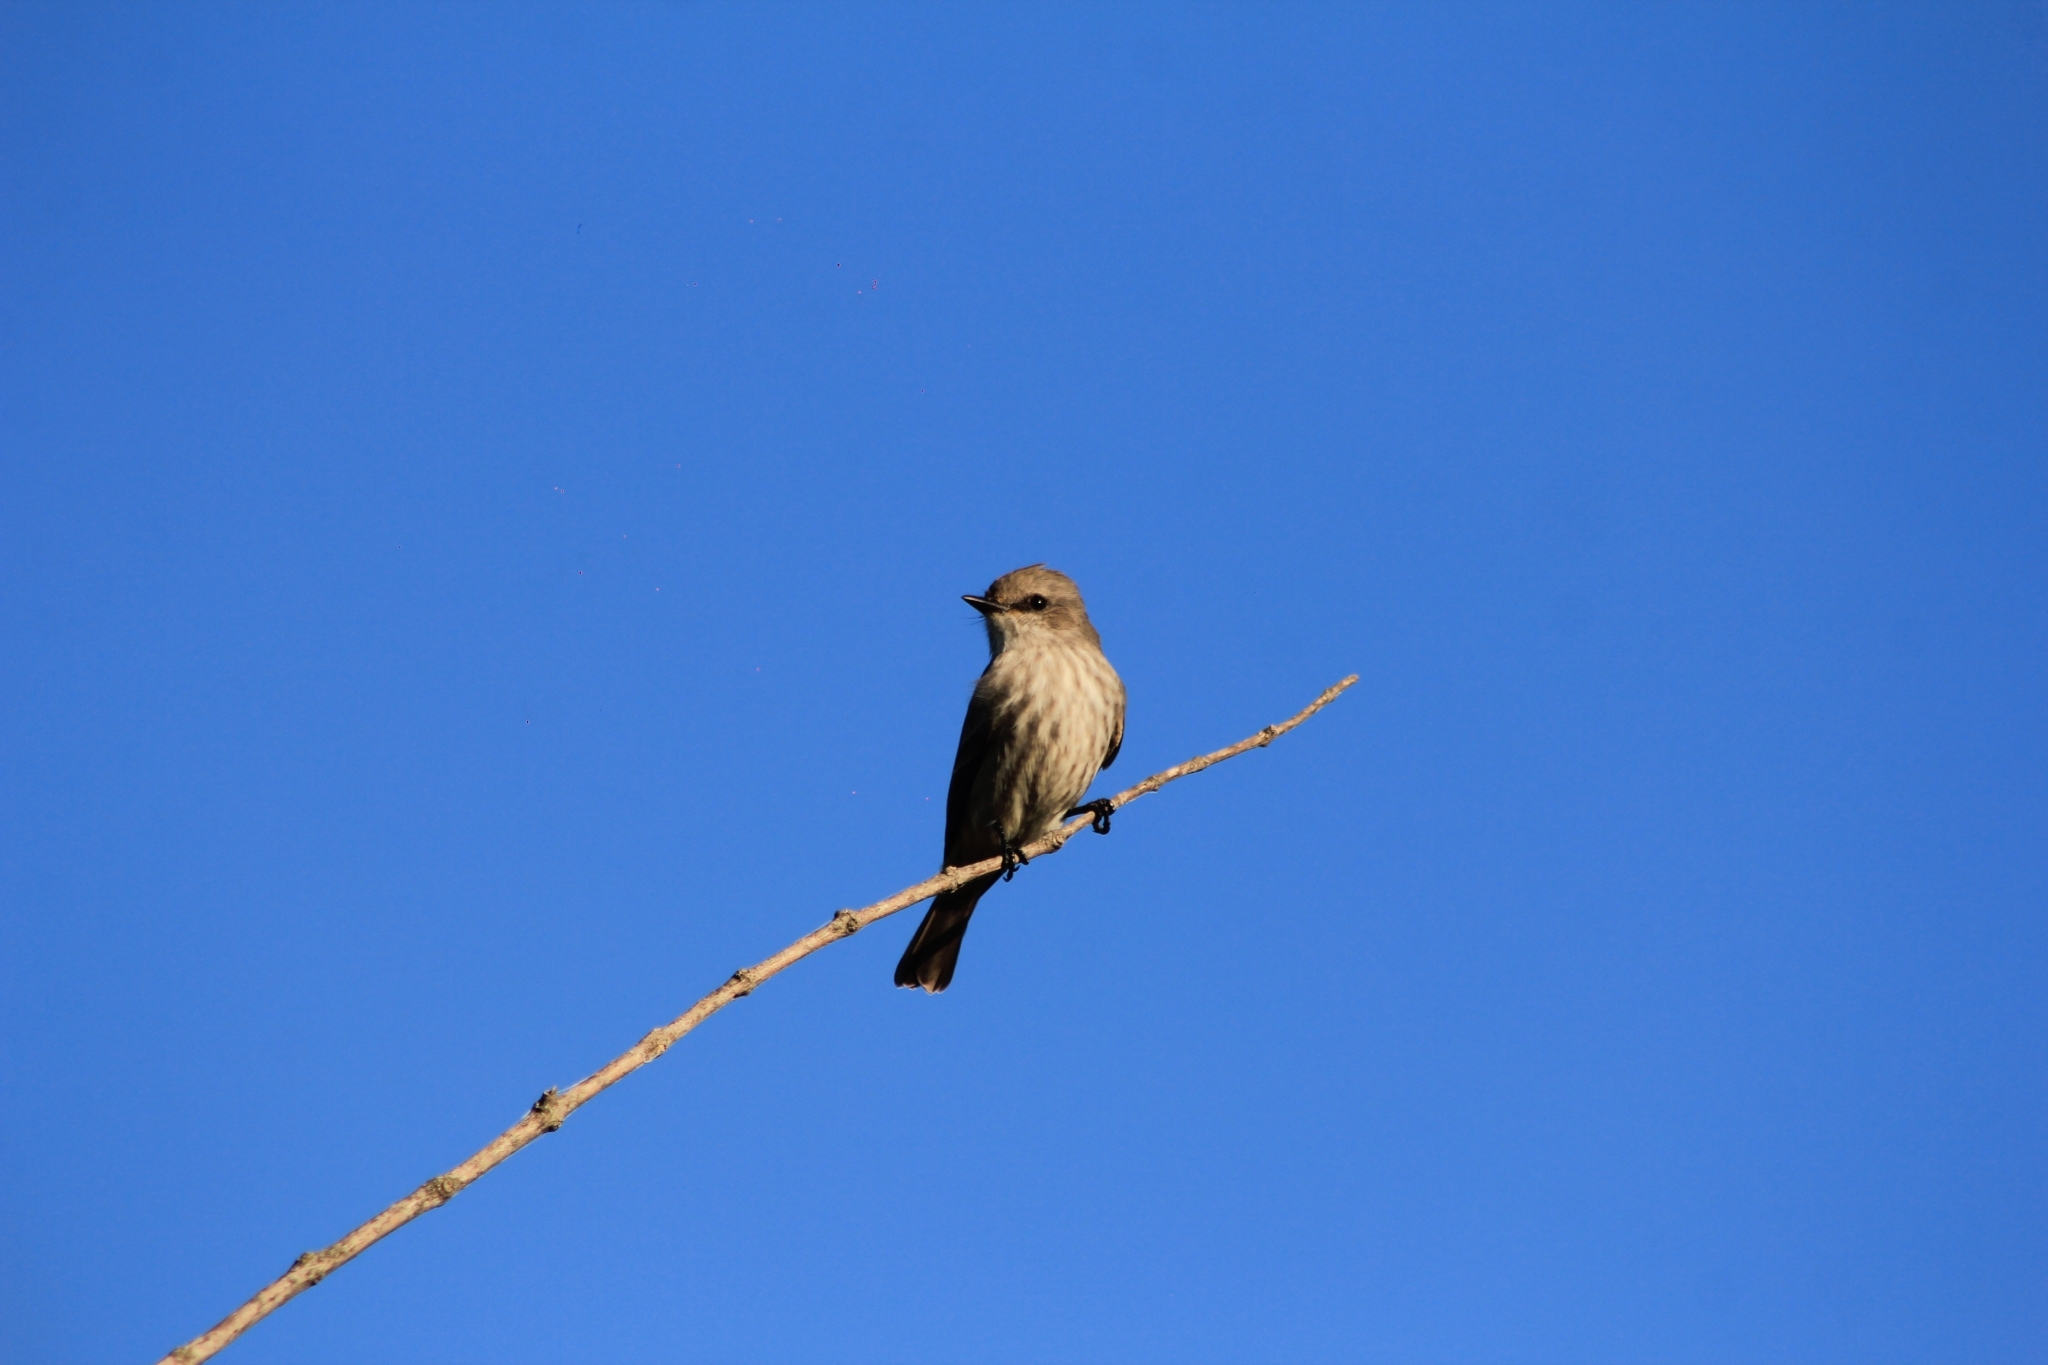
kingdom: Animalia
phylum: Chordata
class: Aves
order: Passeriformes
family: Tyrannidae
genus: Pyrocephalus
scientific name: Pyrocephalus rubinus
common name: Vermilion flycatcher
